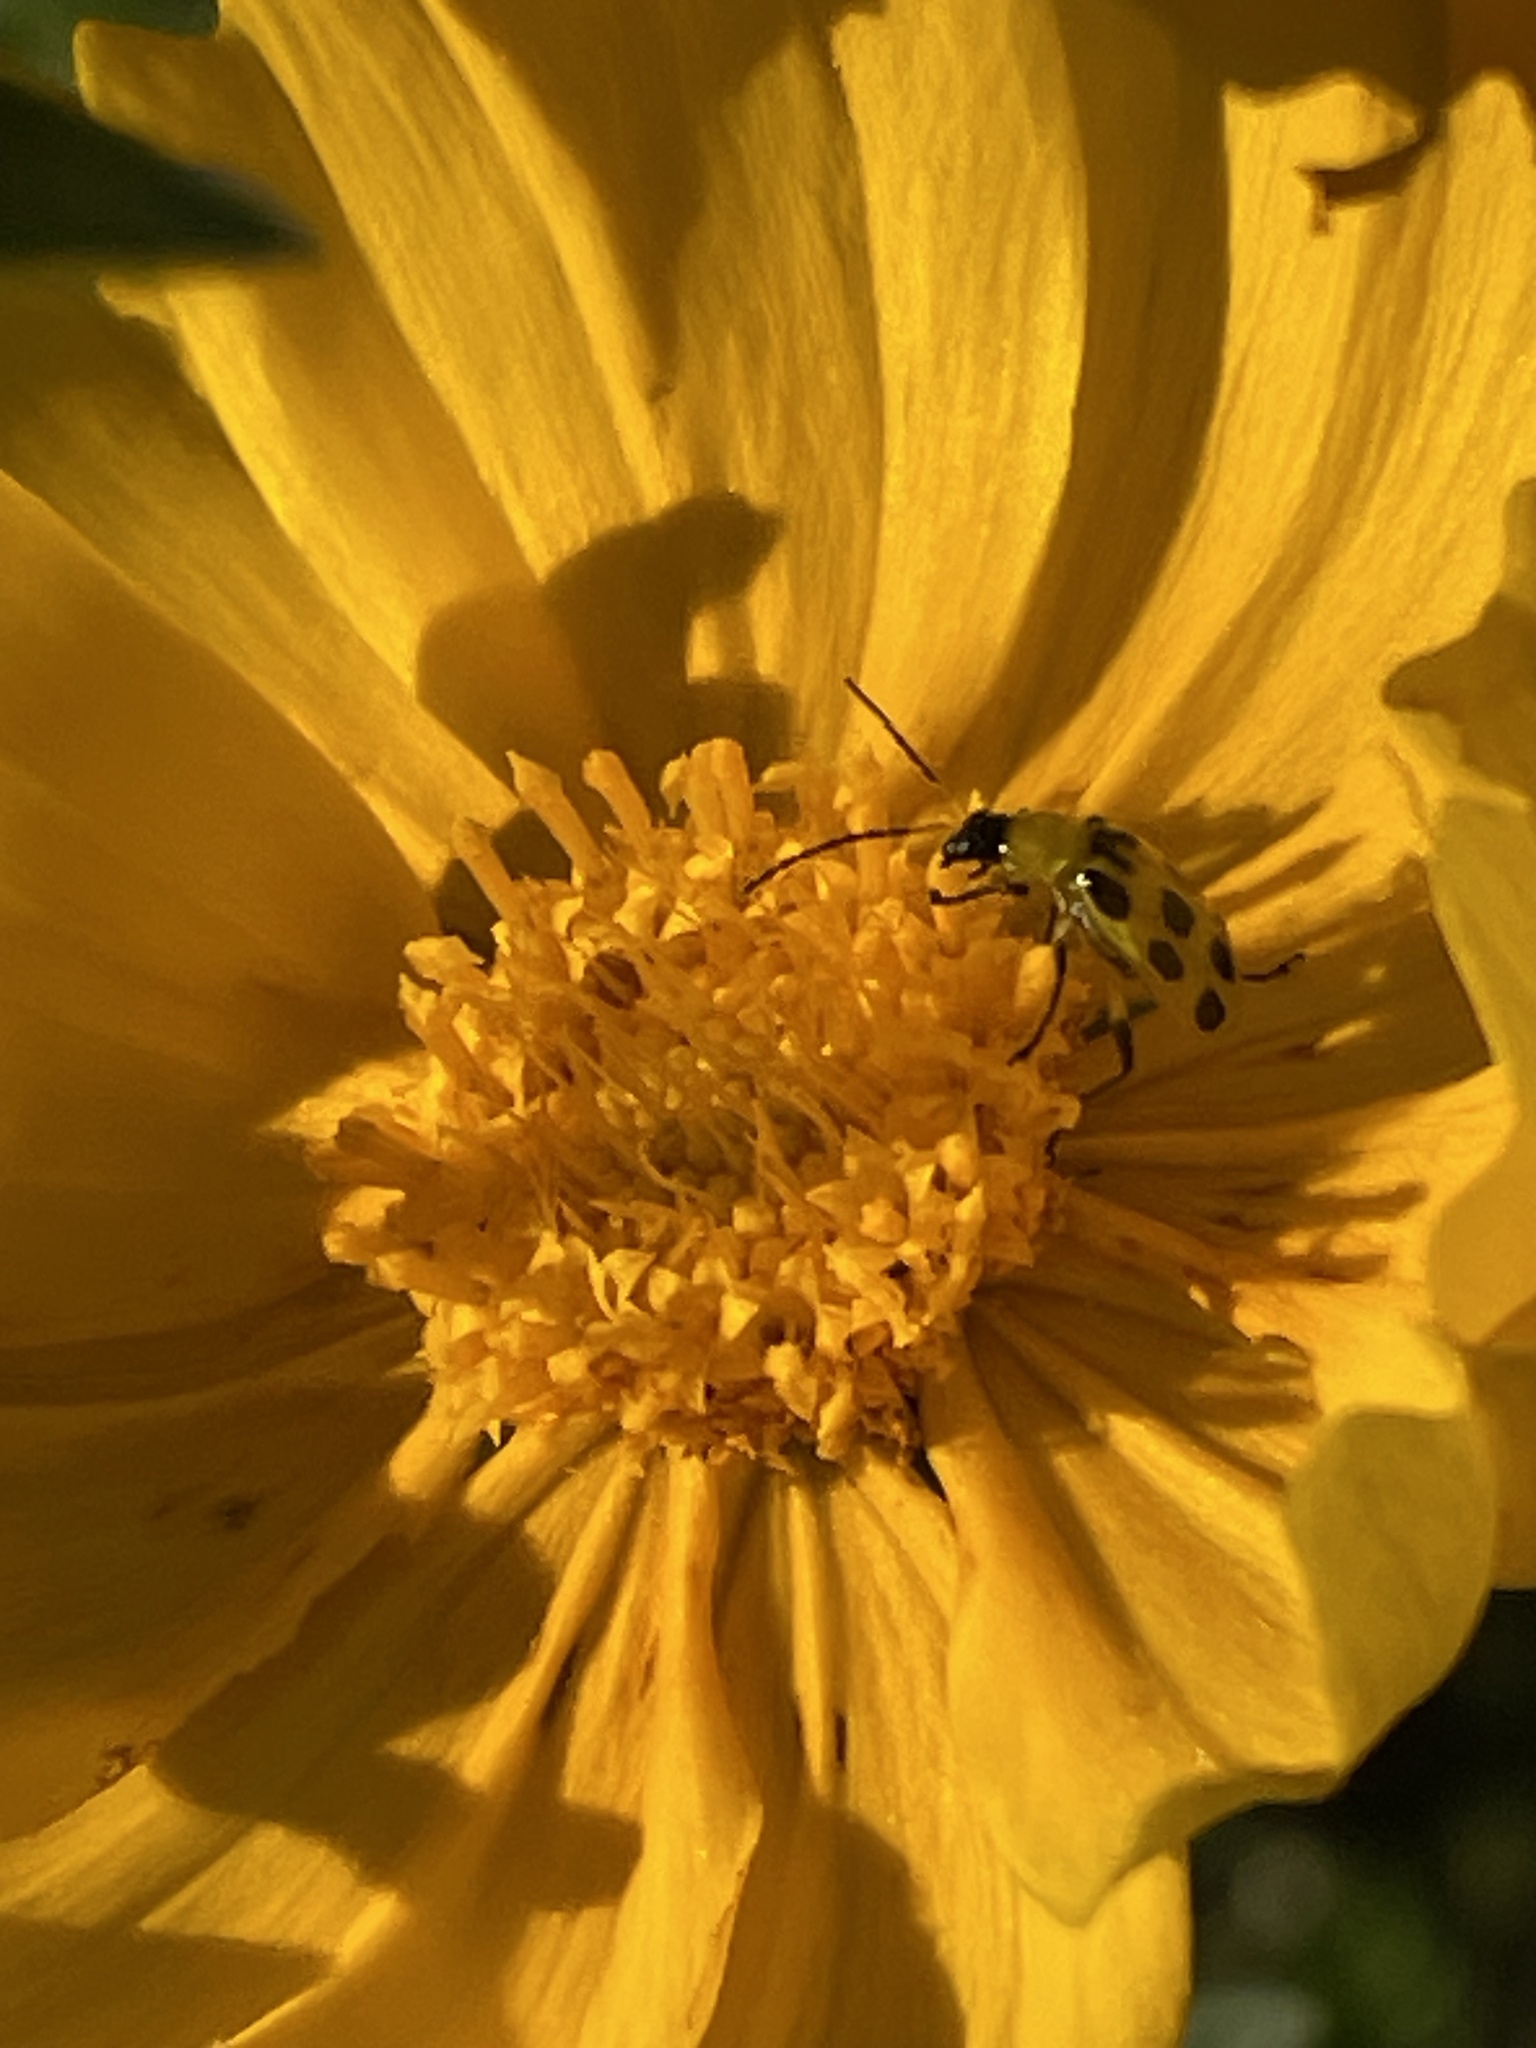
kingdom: Animalia
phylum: Arthropoda
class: Insecta
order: Coleoptera
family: Chrysomelidae
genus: Diabrotica
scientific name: Diabrotica undecimpunctata
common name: Spotted cucumber beetle
